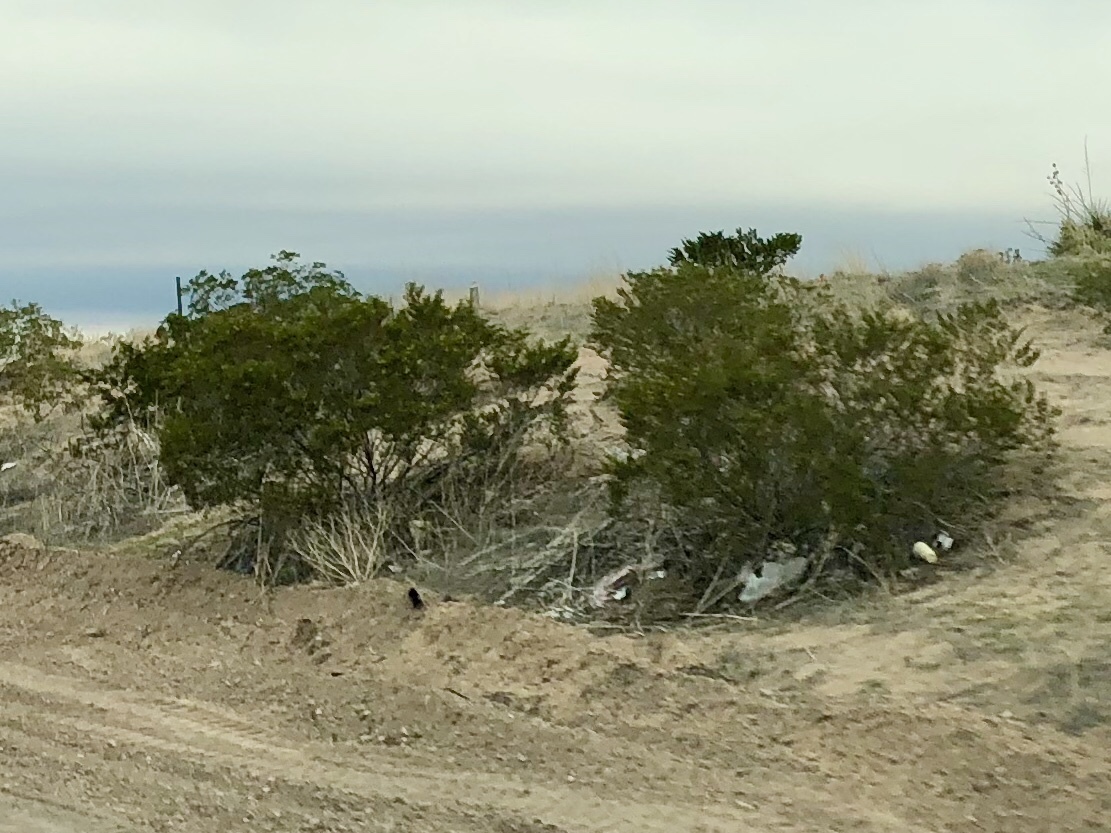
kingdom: Plantae
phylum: Tracheophyta
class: Magnoliopsida
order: Zygophyllales
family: Zygophyllaceae
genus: Larrea
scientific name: Larrea tridentata
